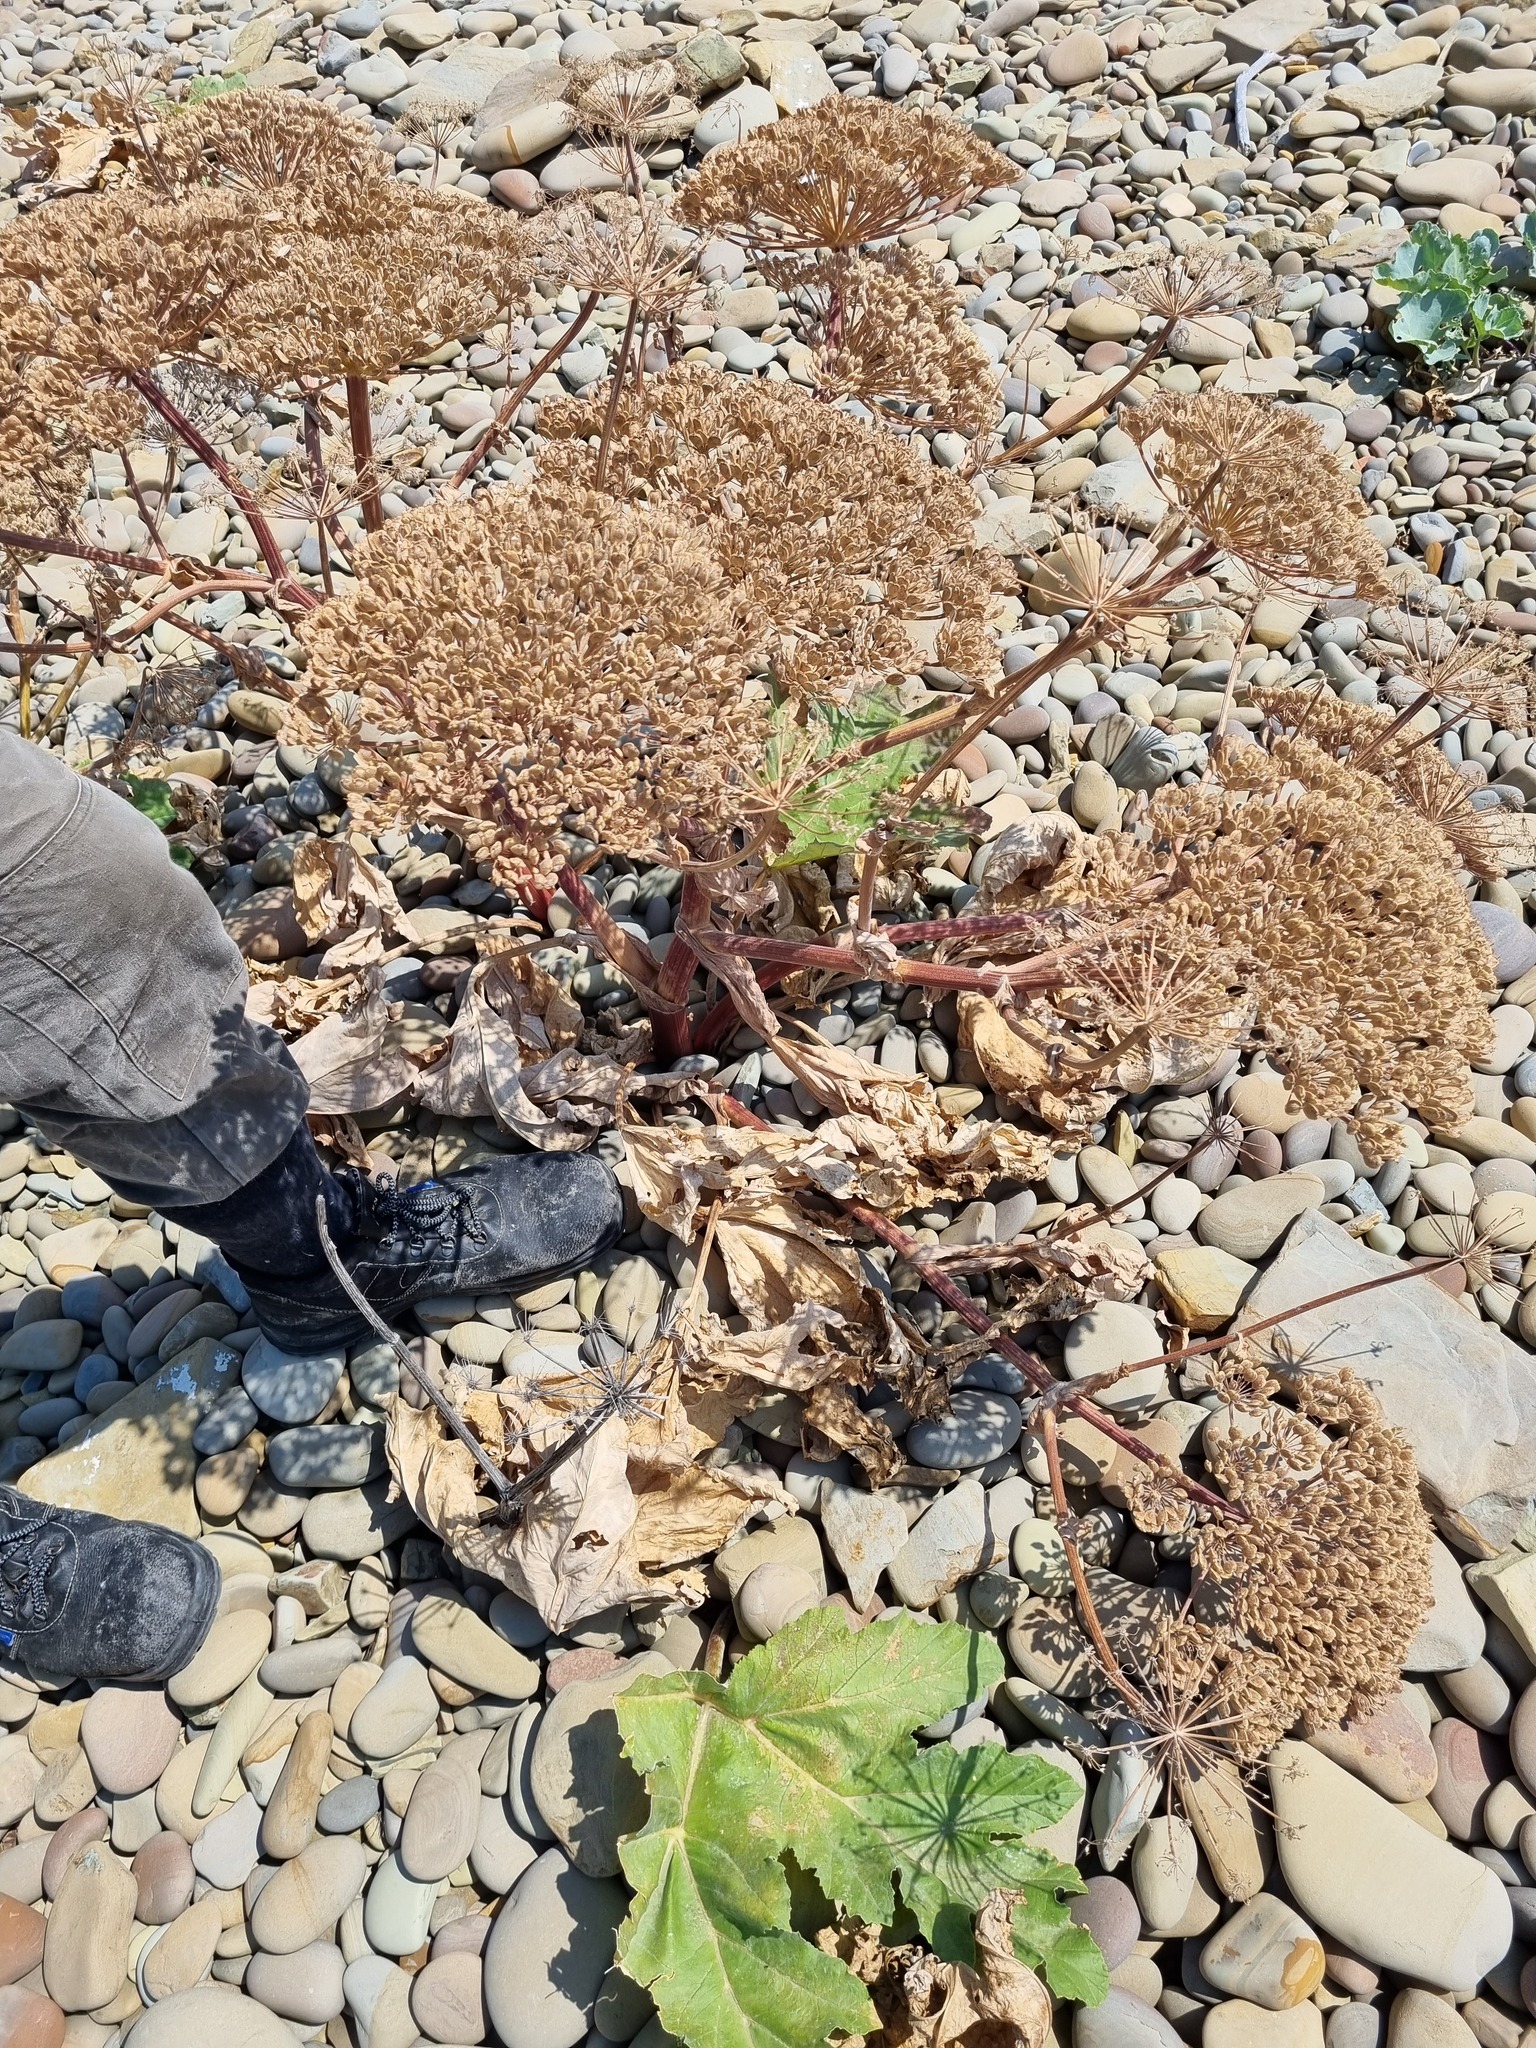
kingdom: Plantae
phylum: Tracheophyta
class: Magnoliopsida
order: Apiales
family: Apiaceae
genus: Heracleum
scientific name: Heracleum stevenii
